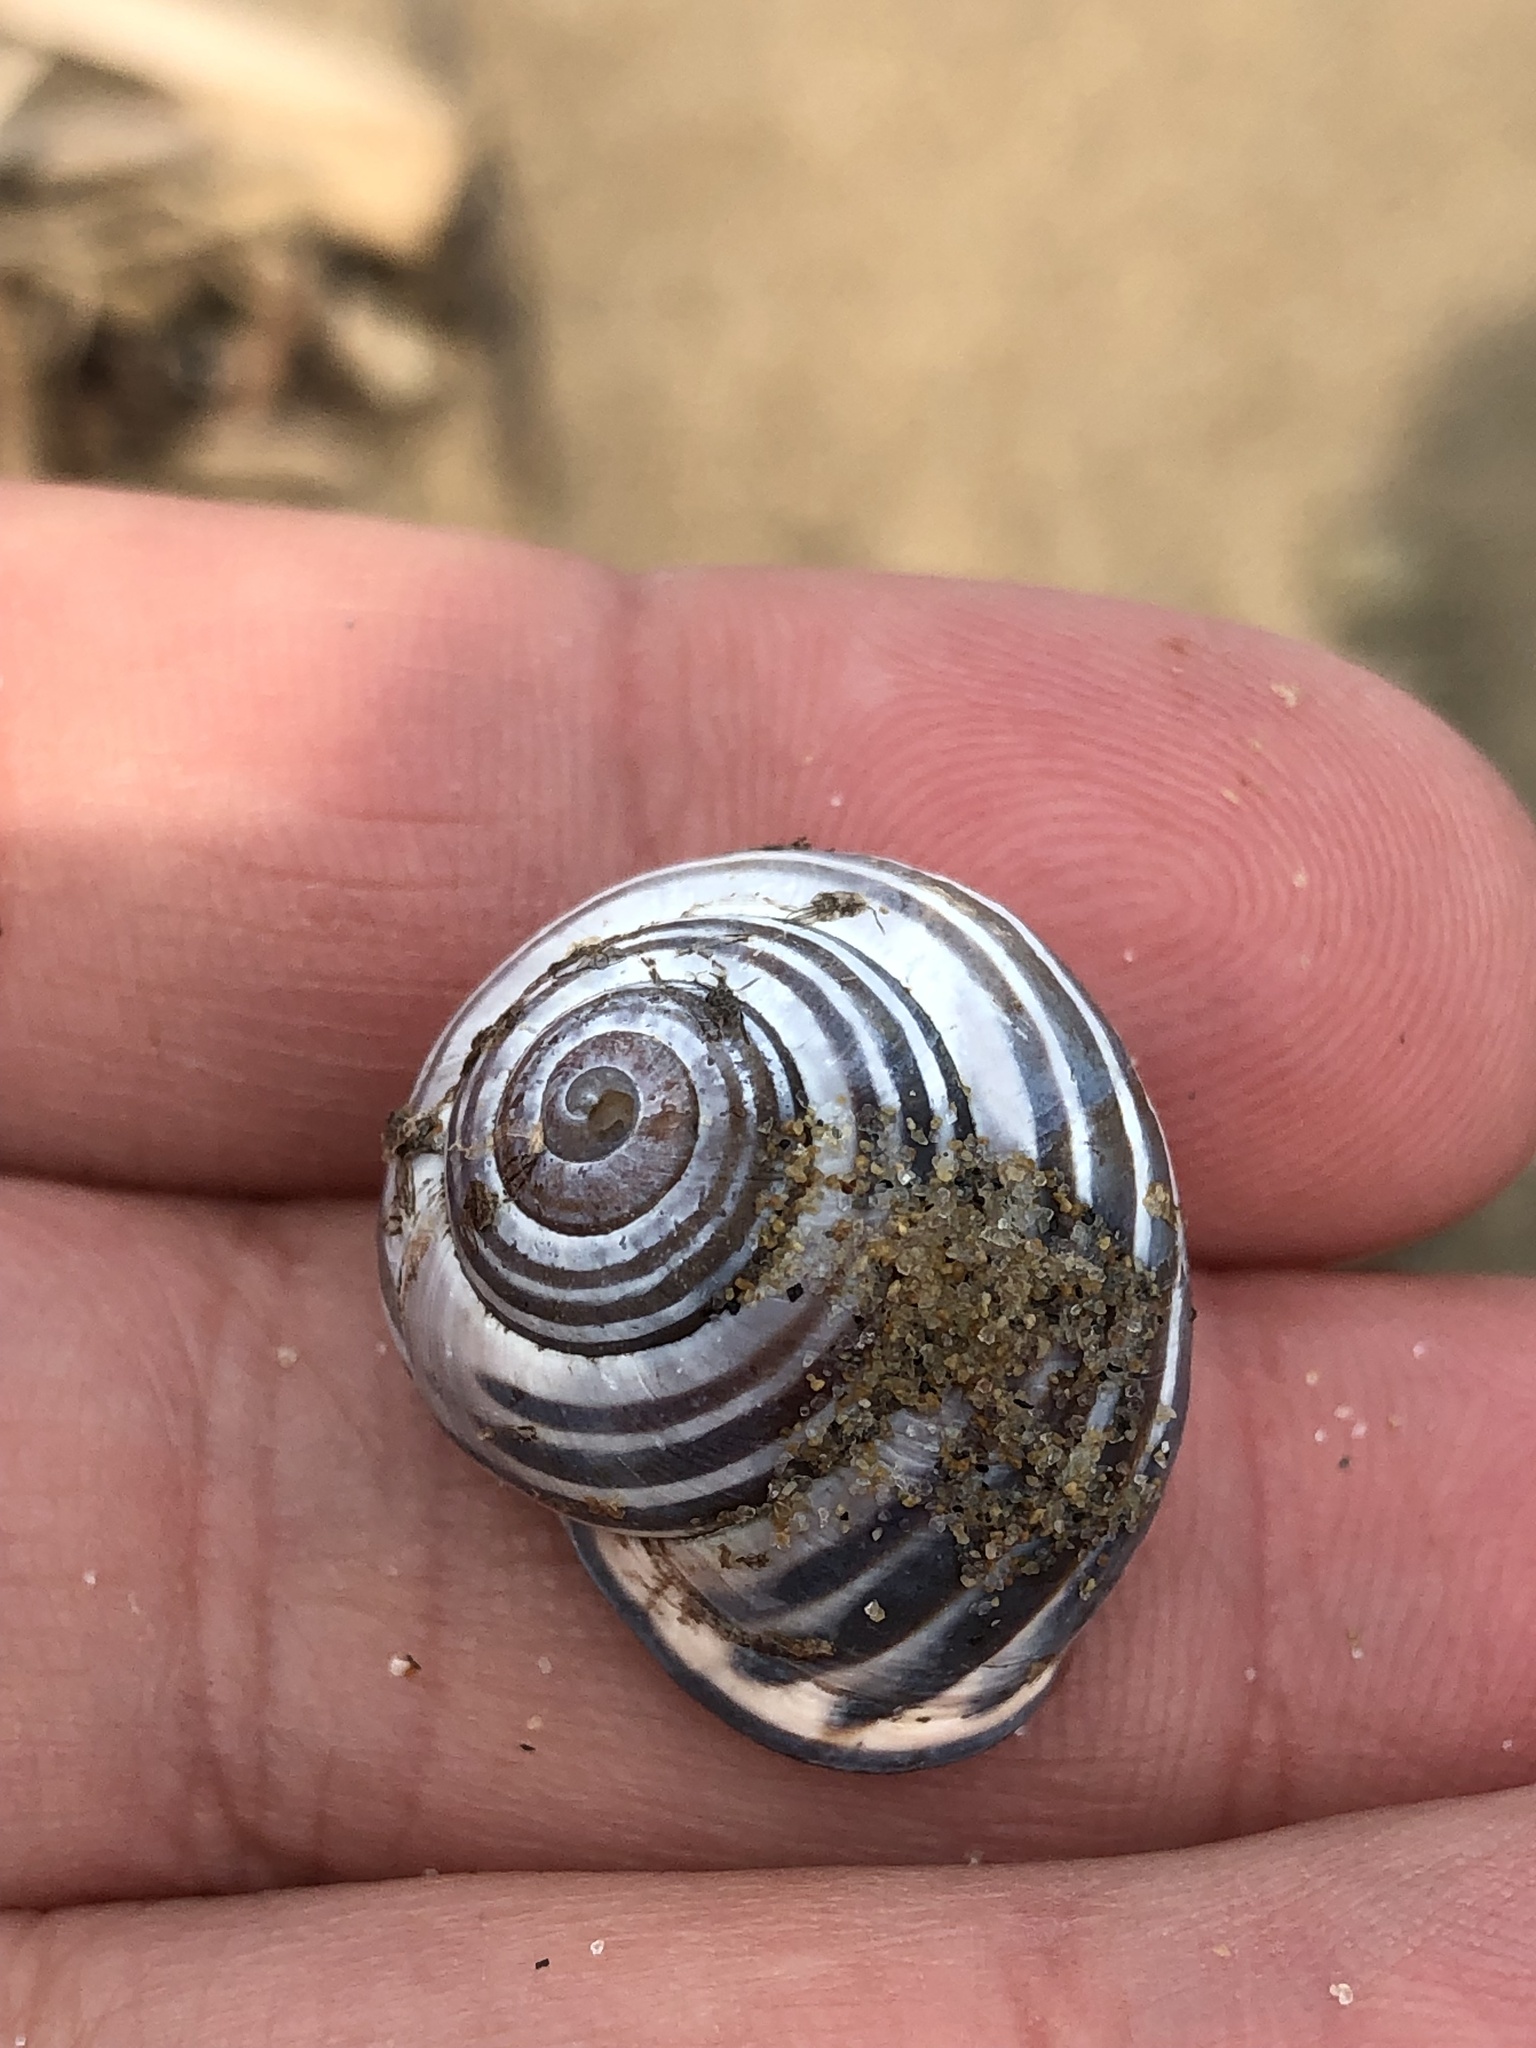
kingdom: Animalia
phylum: Mollusca
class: Gastropoda
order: Stylommatophora
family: Helicidae
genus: Cepaea
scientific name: Cepaea nemoralis
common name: Grovesnail
